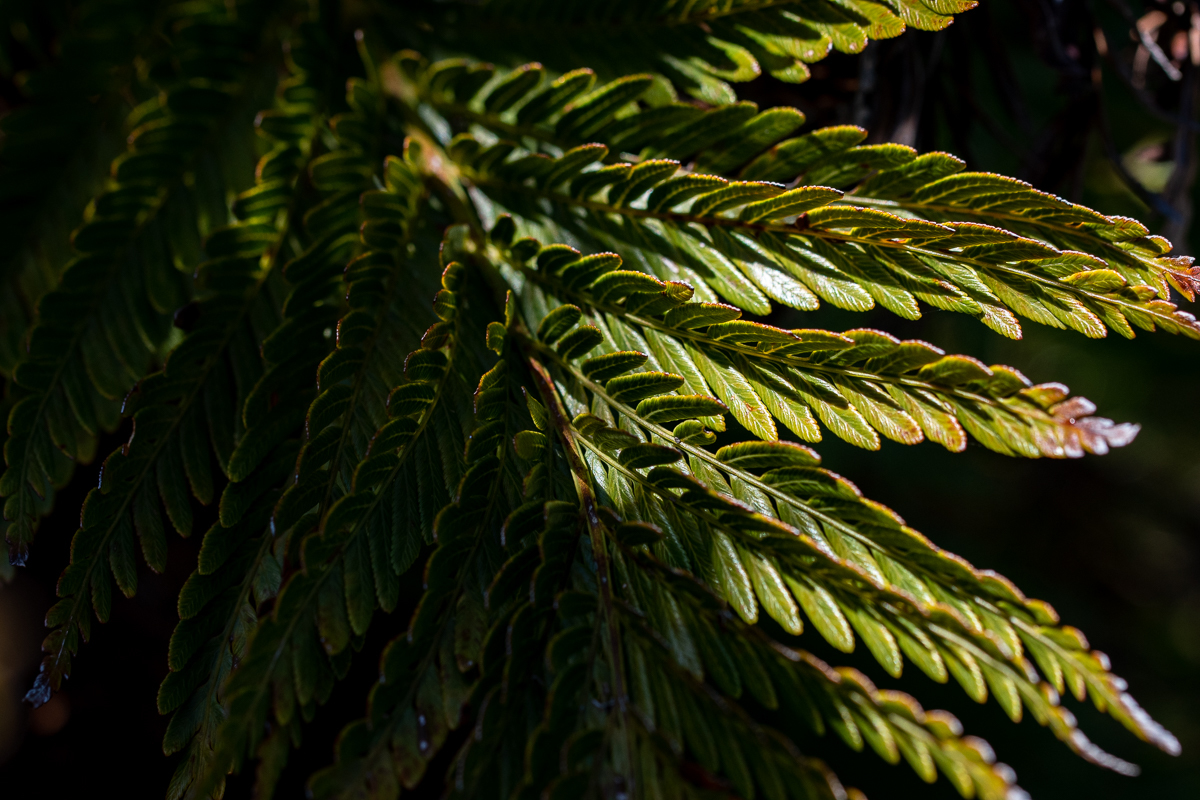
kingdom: Plantae
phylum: Tracheophyta
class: Polypodiopsida
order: Osmundales
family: Osmundaceae
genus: Todea
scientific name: Todea barbara
